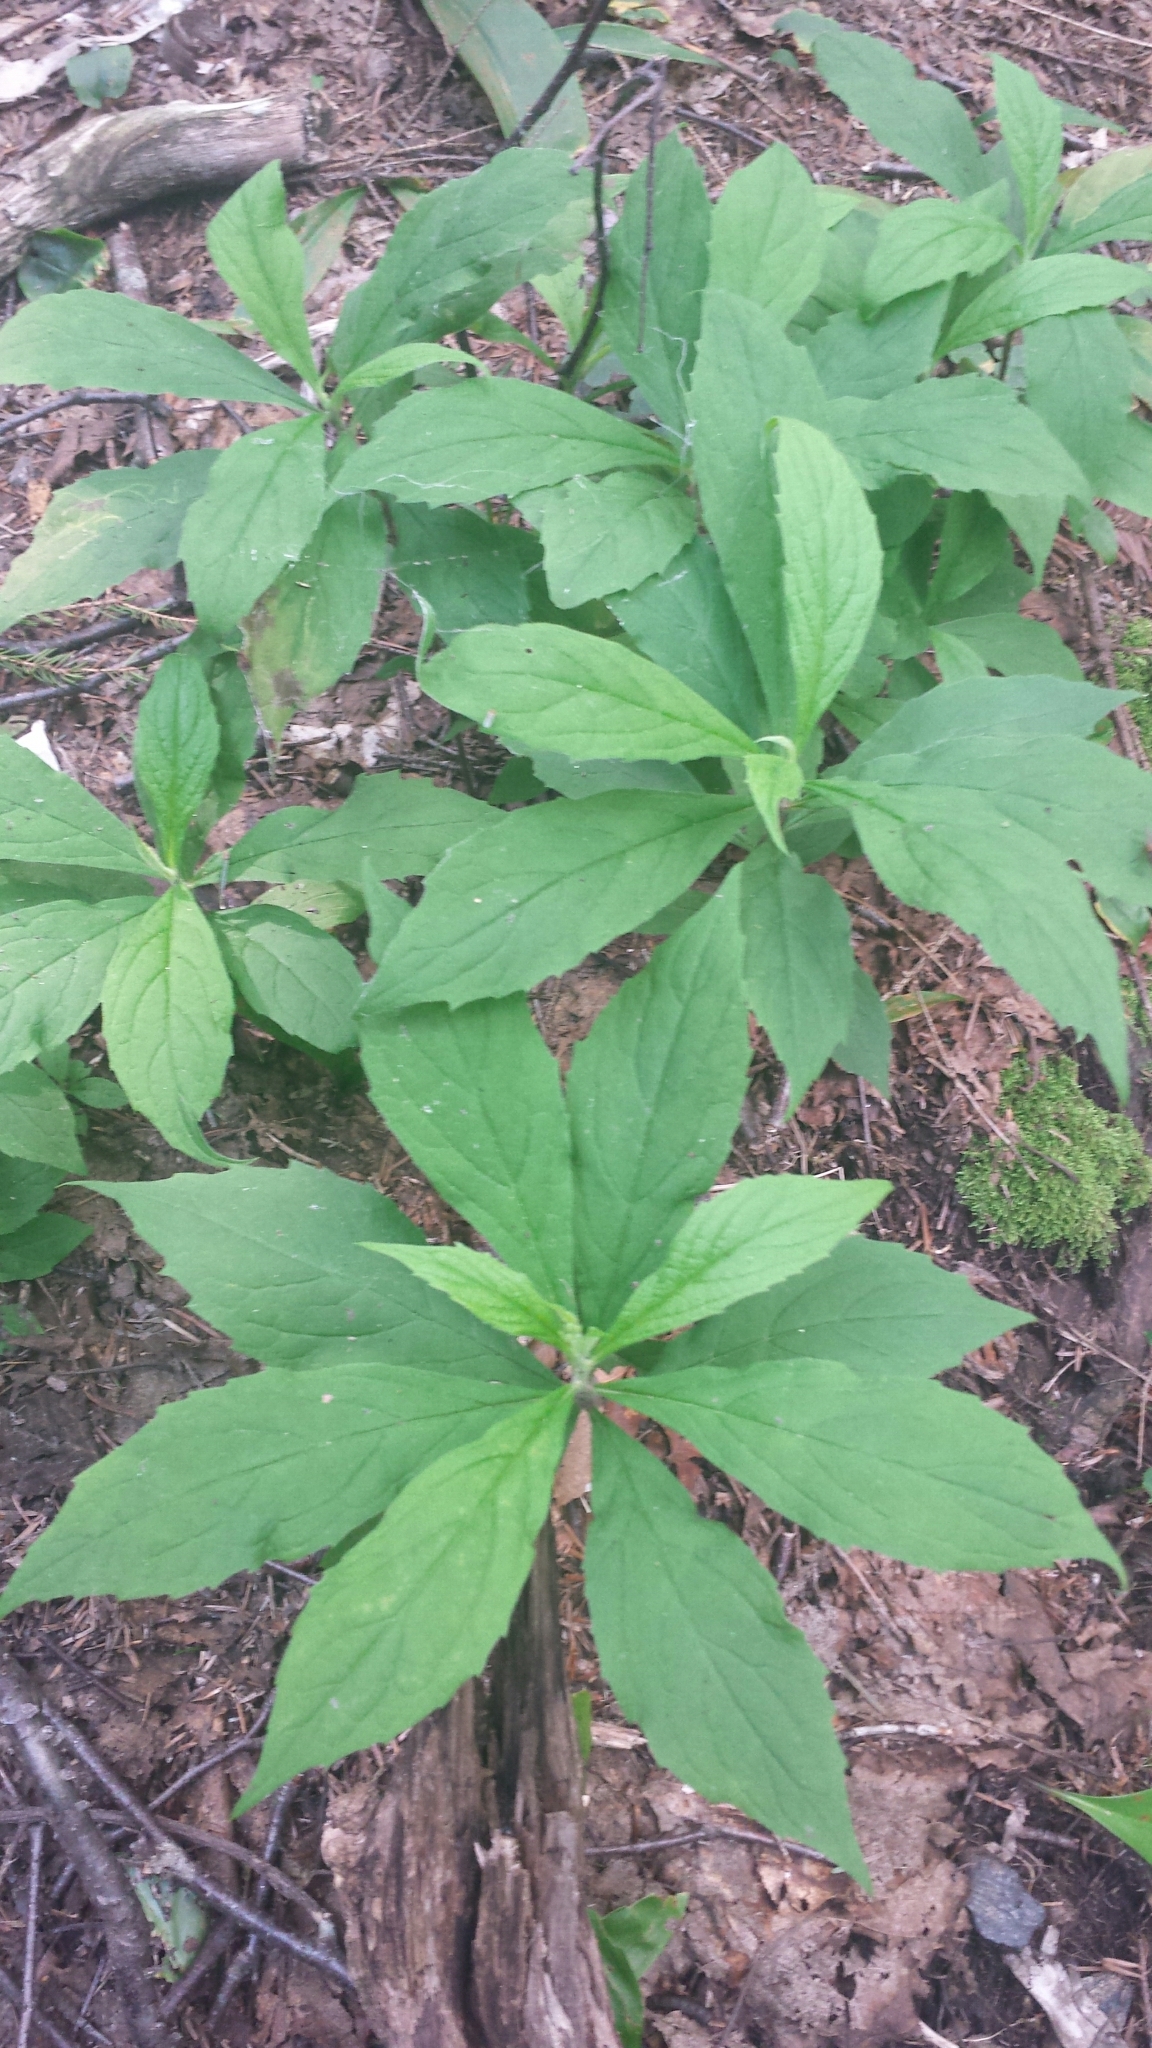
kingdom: Plantae
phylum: Tracheophyta
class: Magnoliopsida
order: Asterales
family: Asteraceae
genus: Oclemena
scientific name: Oclemena acuminata
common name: Mountain aster
